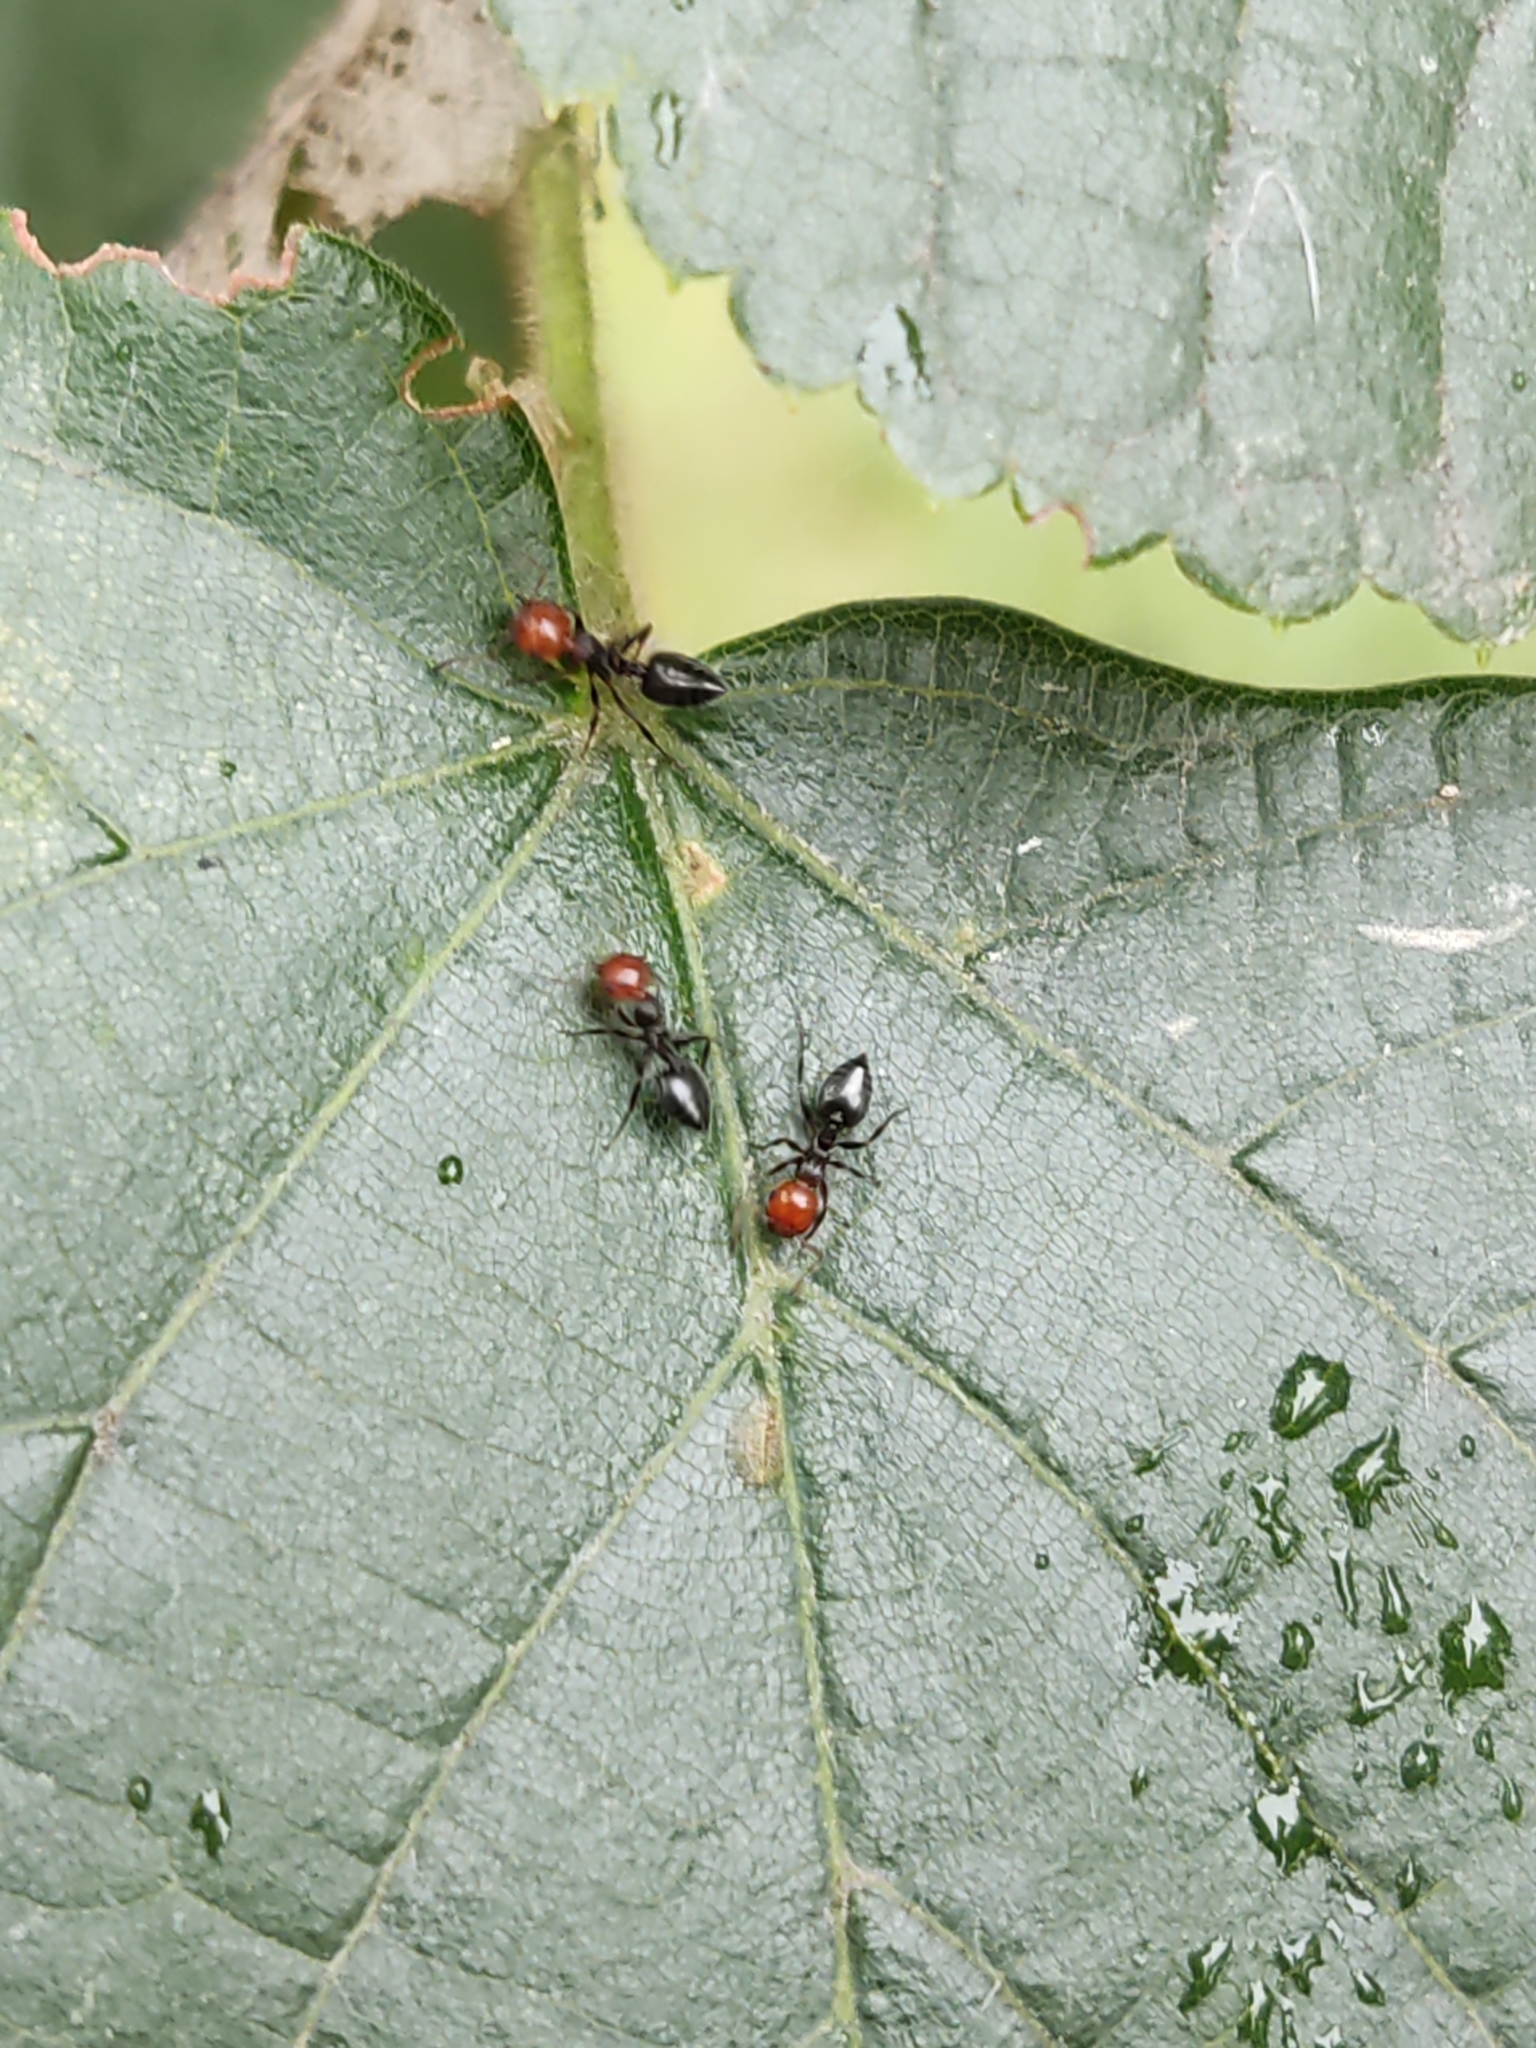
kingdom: Animalia
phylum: Arthropoda
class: Insecta
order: Hymenoptera
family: Formicidae
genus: Crematogaster
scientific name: Crematogaster scutellaris
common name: Fourmi du liège
